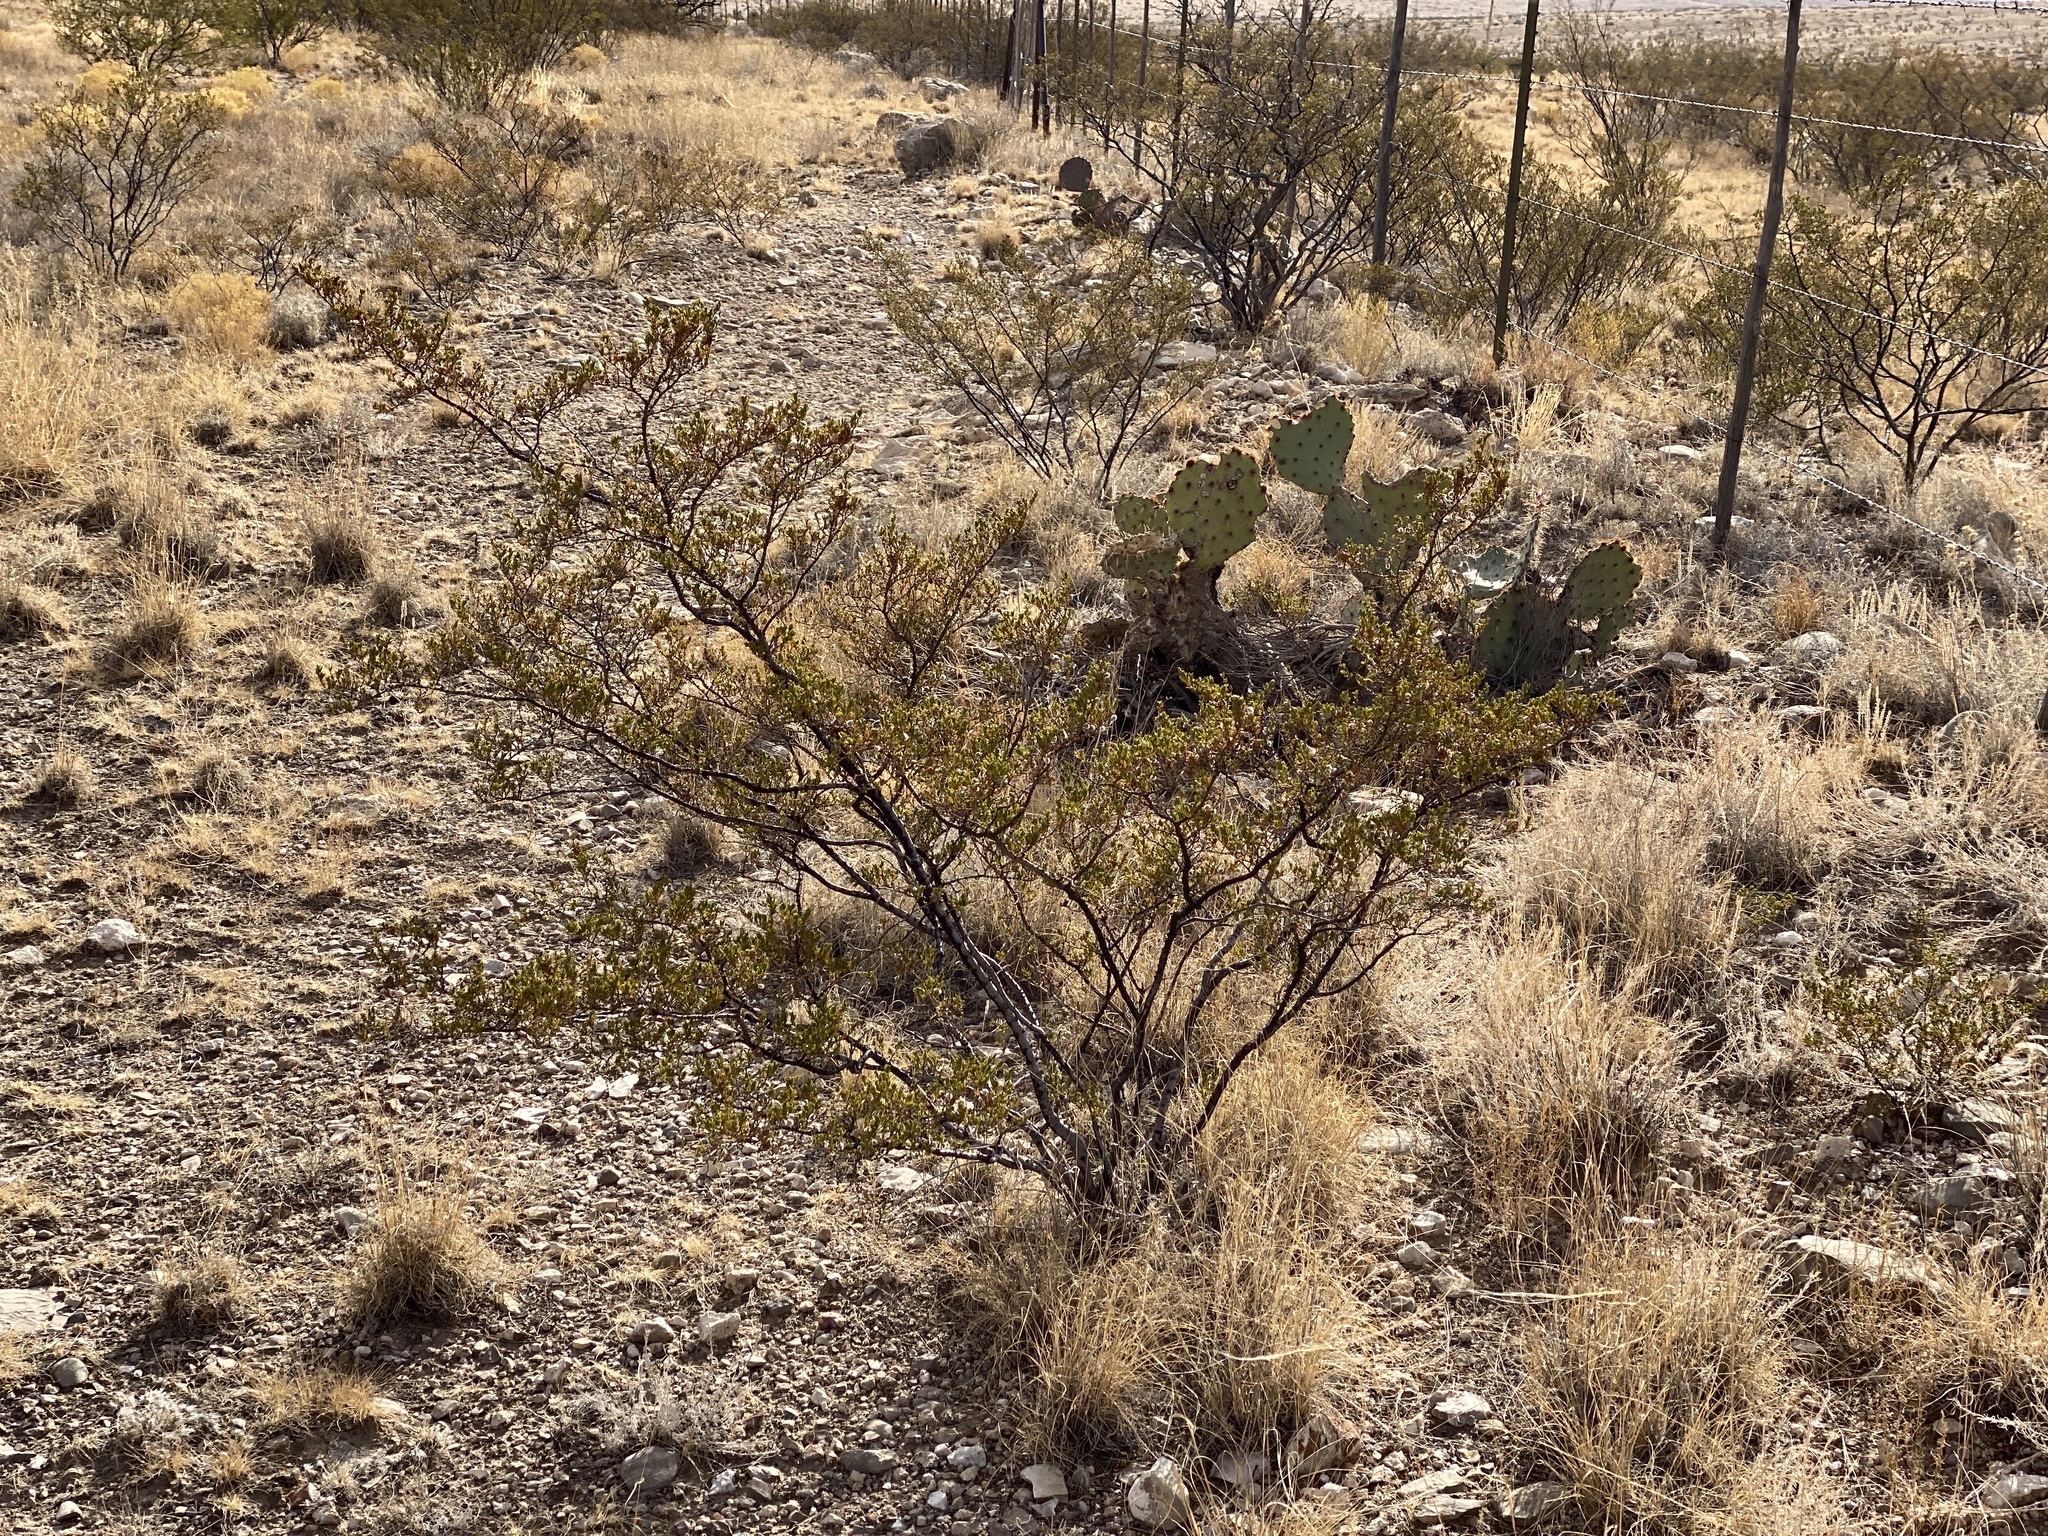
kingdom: Plantae
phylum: Tracheophyta
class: Magnoliopsida
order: Zygophyllales
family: Zygophyllaceae
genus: Larrea
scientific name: Larrea tridentata
